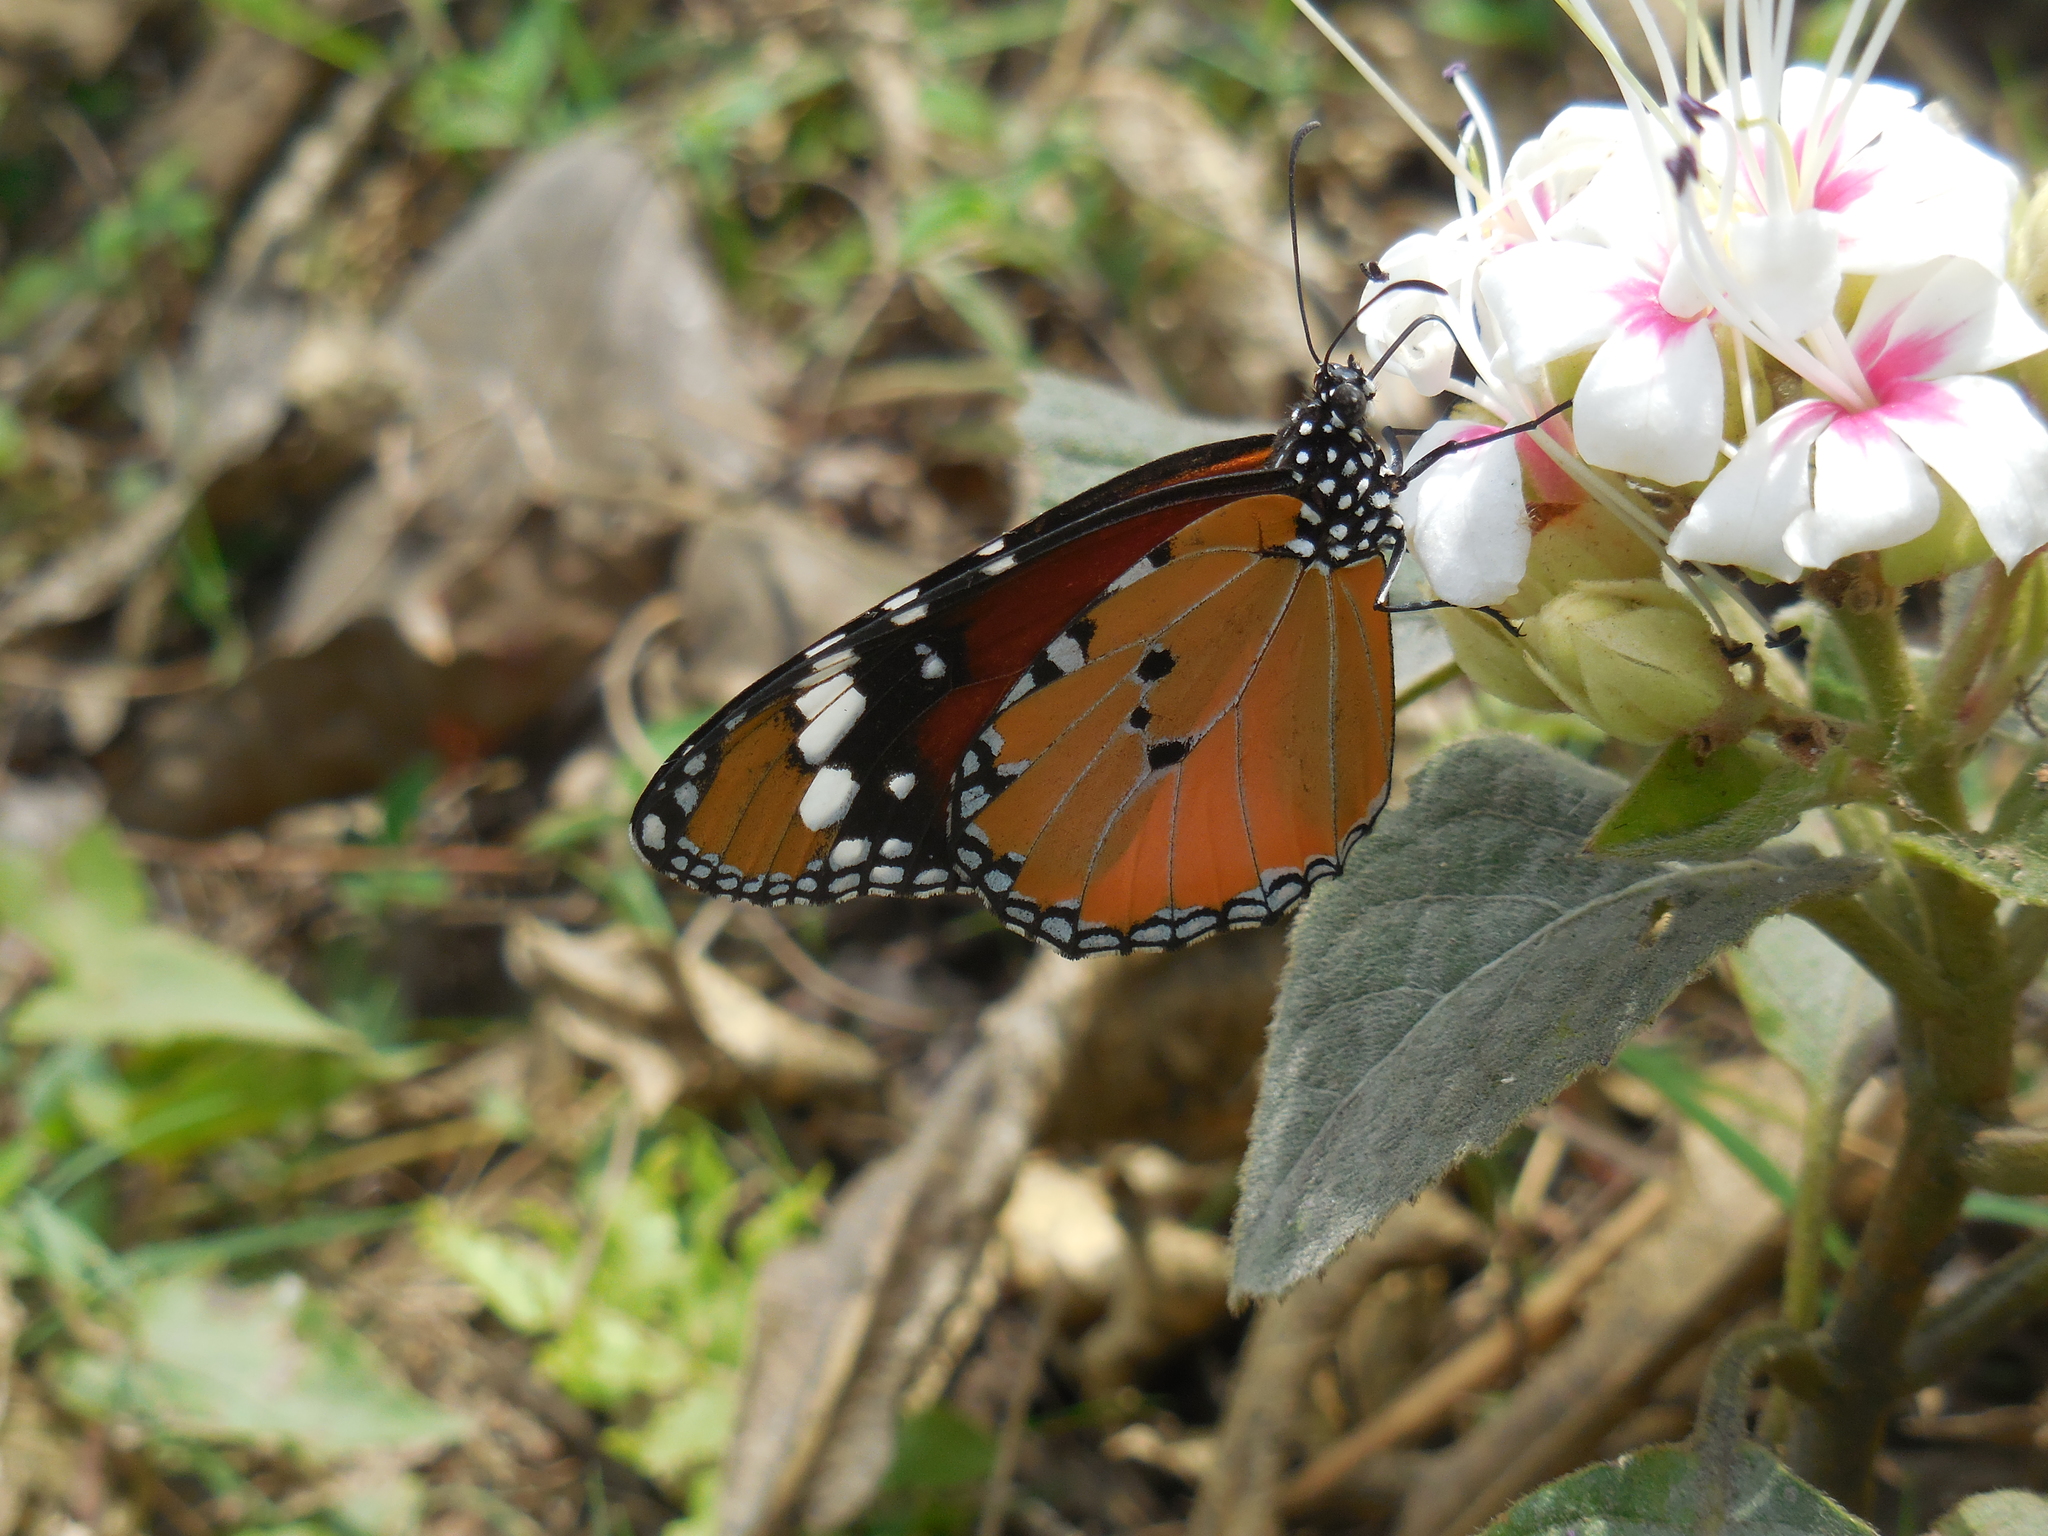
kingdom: Animalia
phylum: Arthropoda
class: Insecta
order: Lepidoptera
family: Nymphalidae
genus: Danaus
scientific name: Danaus chrysippus
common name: Plain tiger
